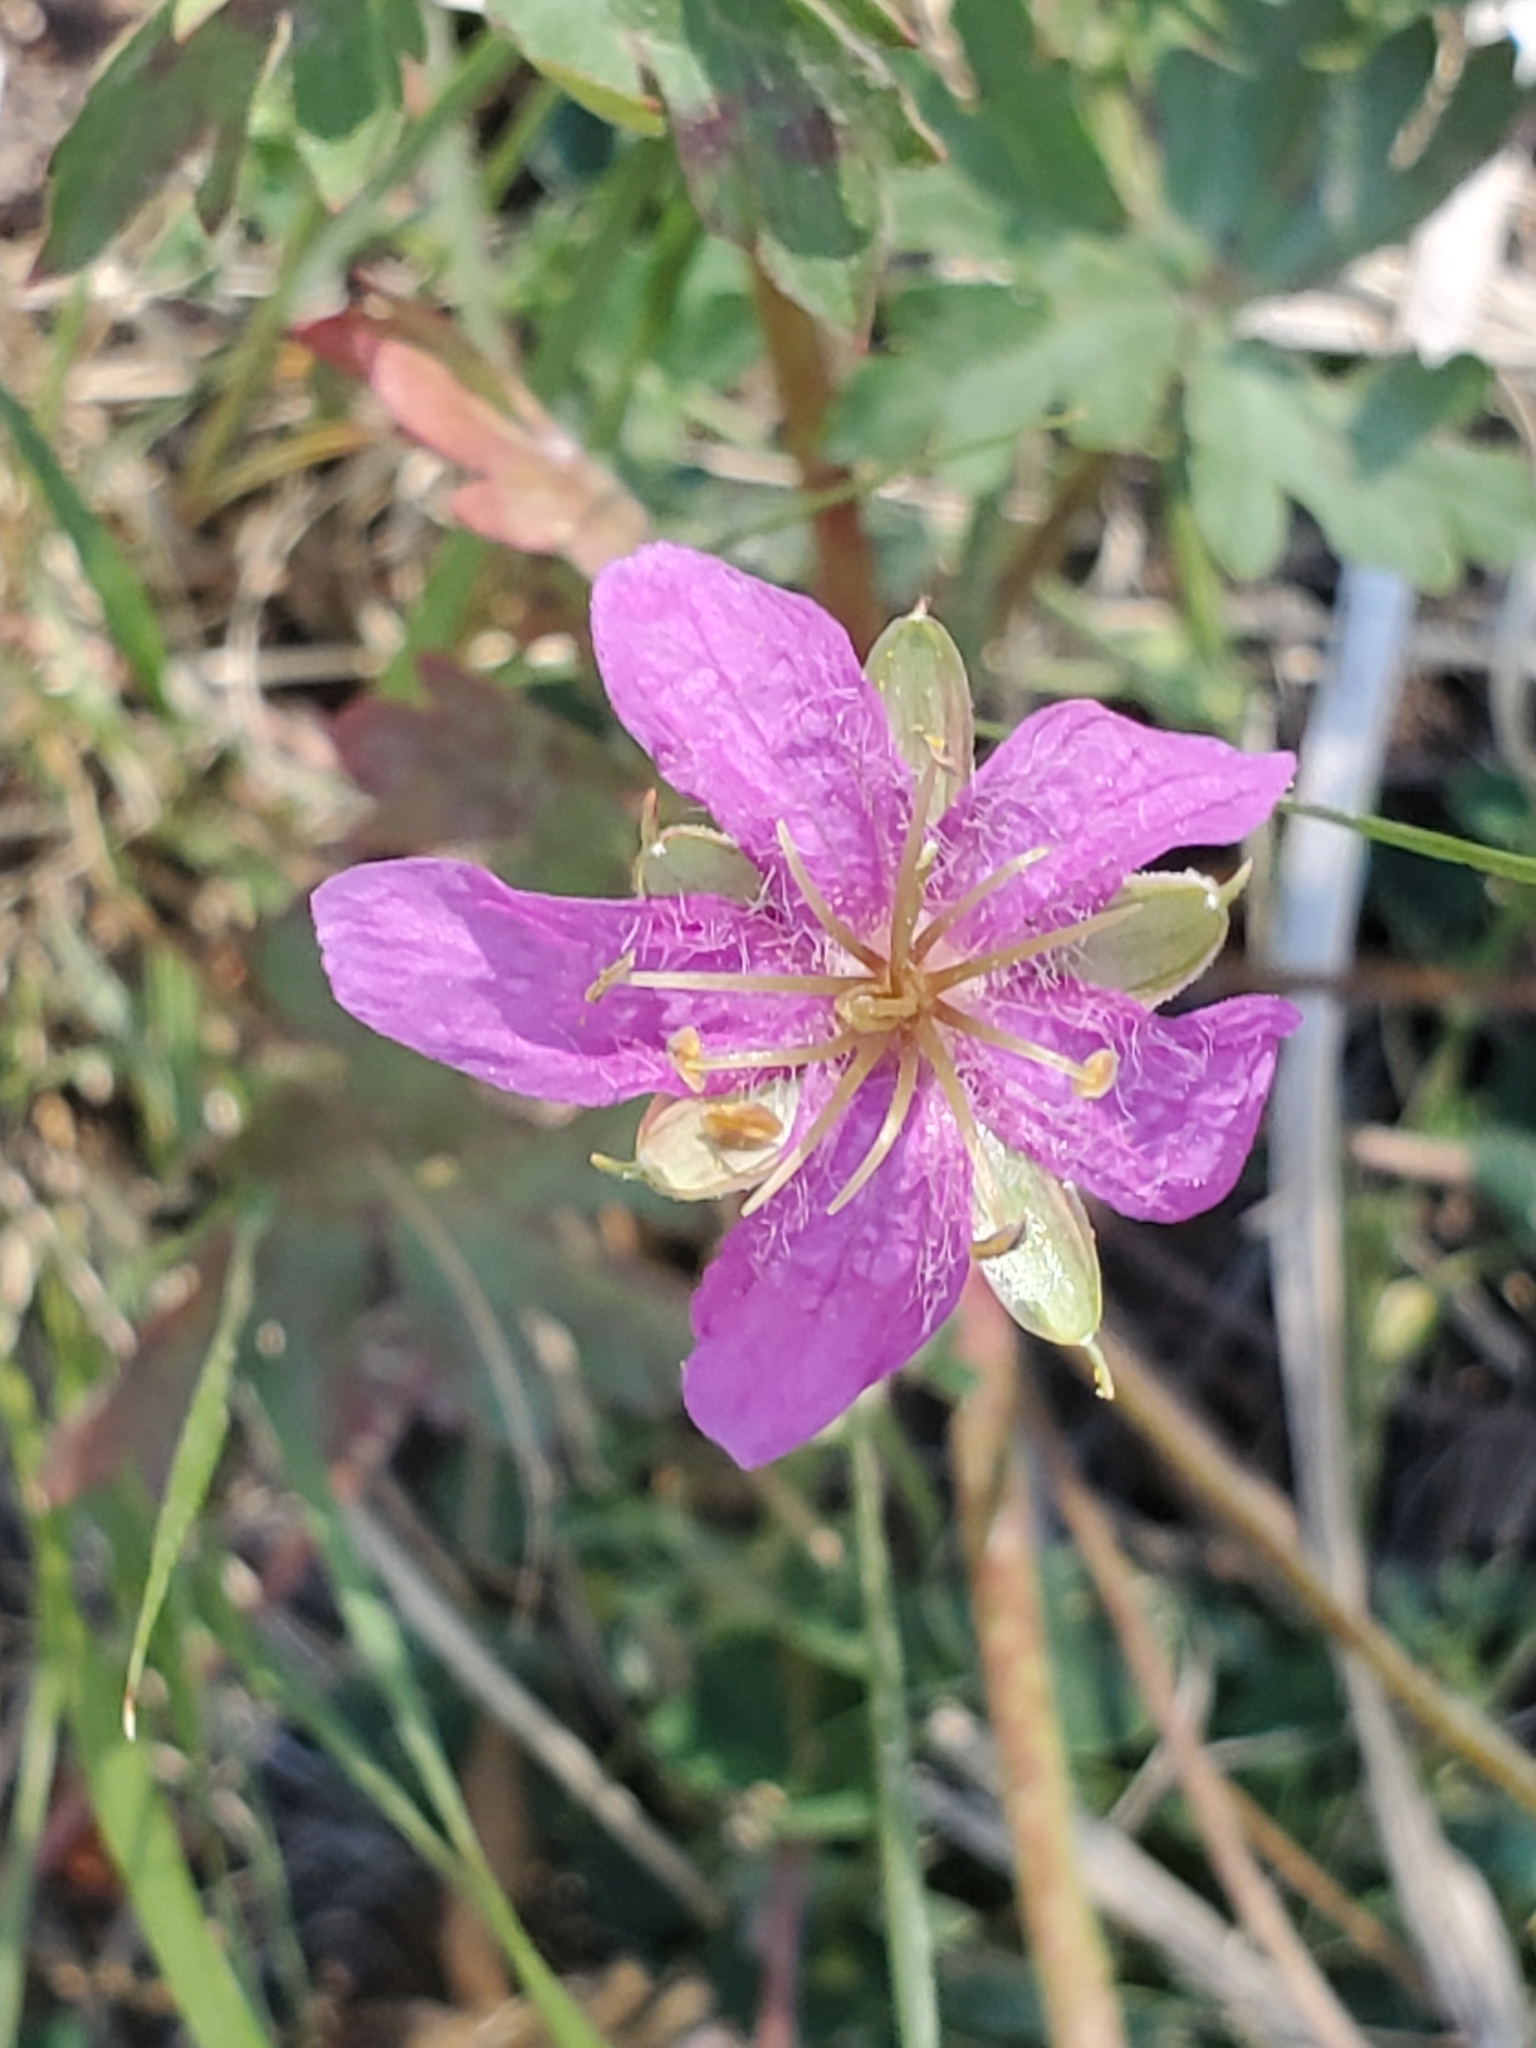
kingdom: Plantae
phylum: Tracheophyta
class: Magnoliopsida
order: Geraniales
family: Geraniaceae
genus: Geranium
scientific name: Geranium caespitosum
